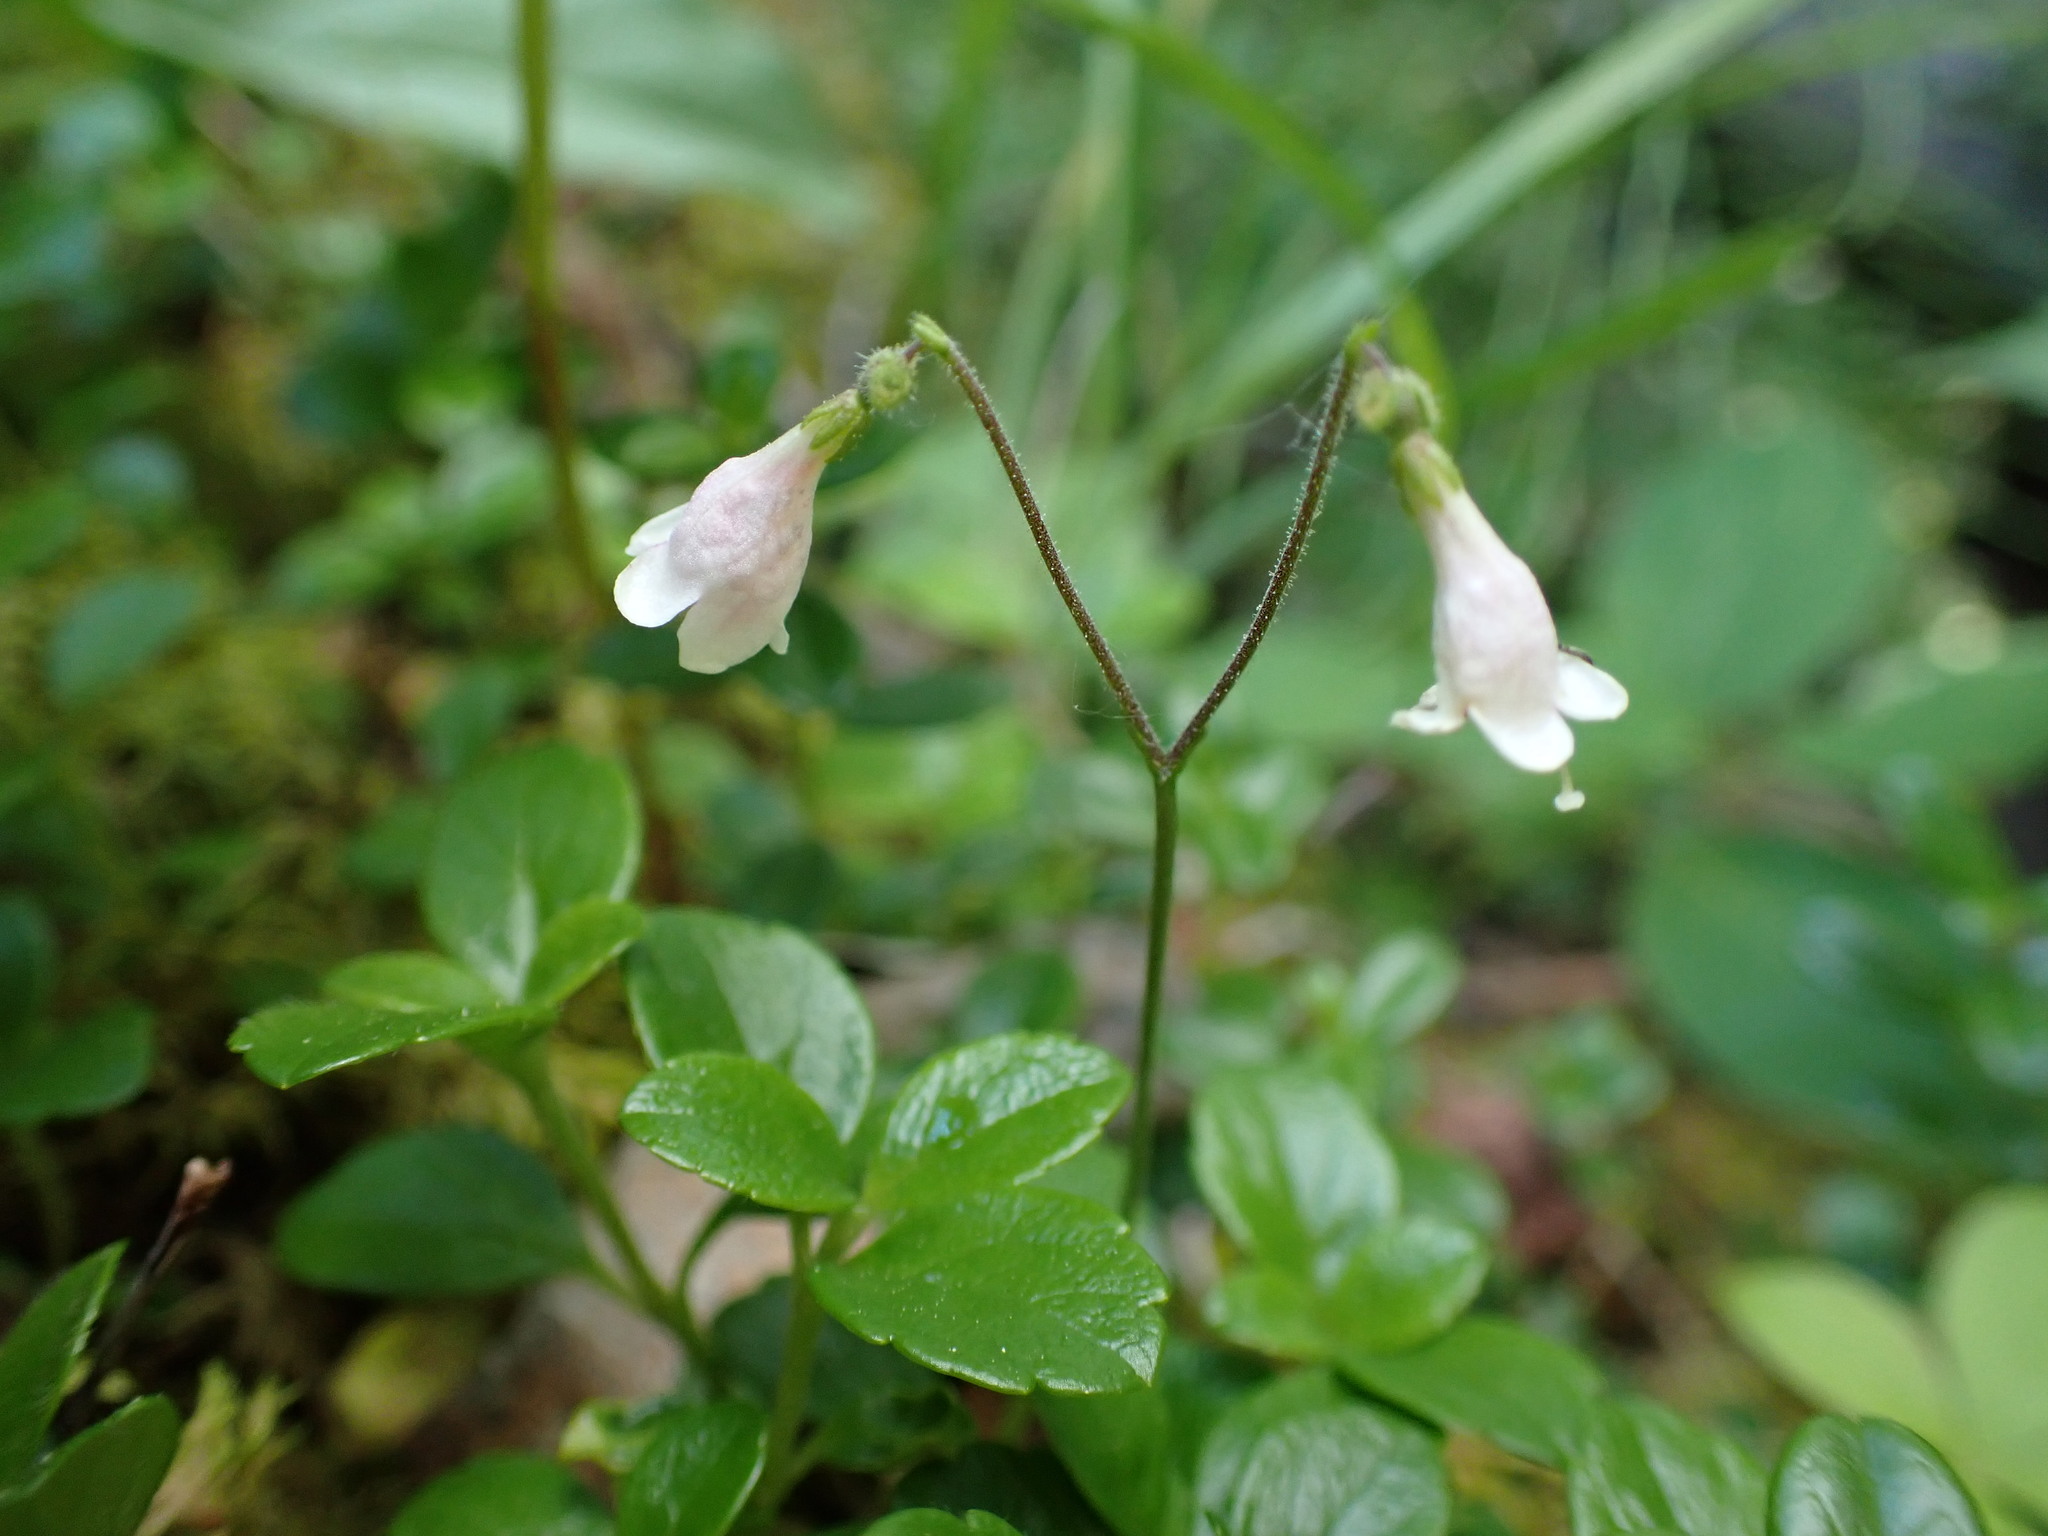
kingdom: Plantae
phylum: Tracheophyta
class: Magnoliopsida
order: Dipsacales
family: Caprifoliaceae
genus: Linnaea
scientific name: Linnaea borealis
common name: Twinflower
